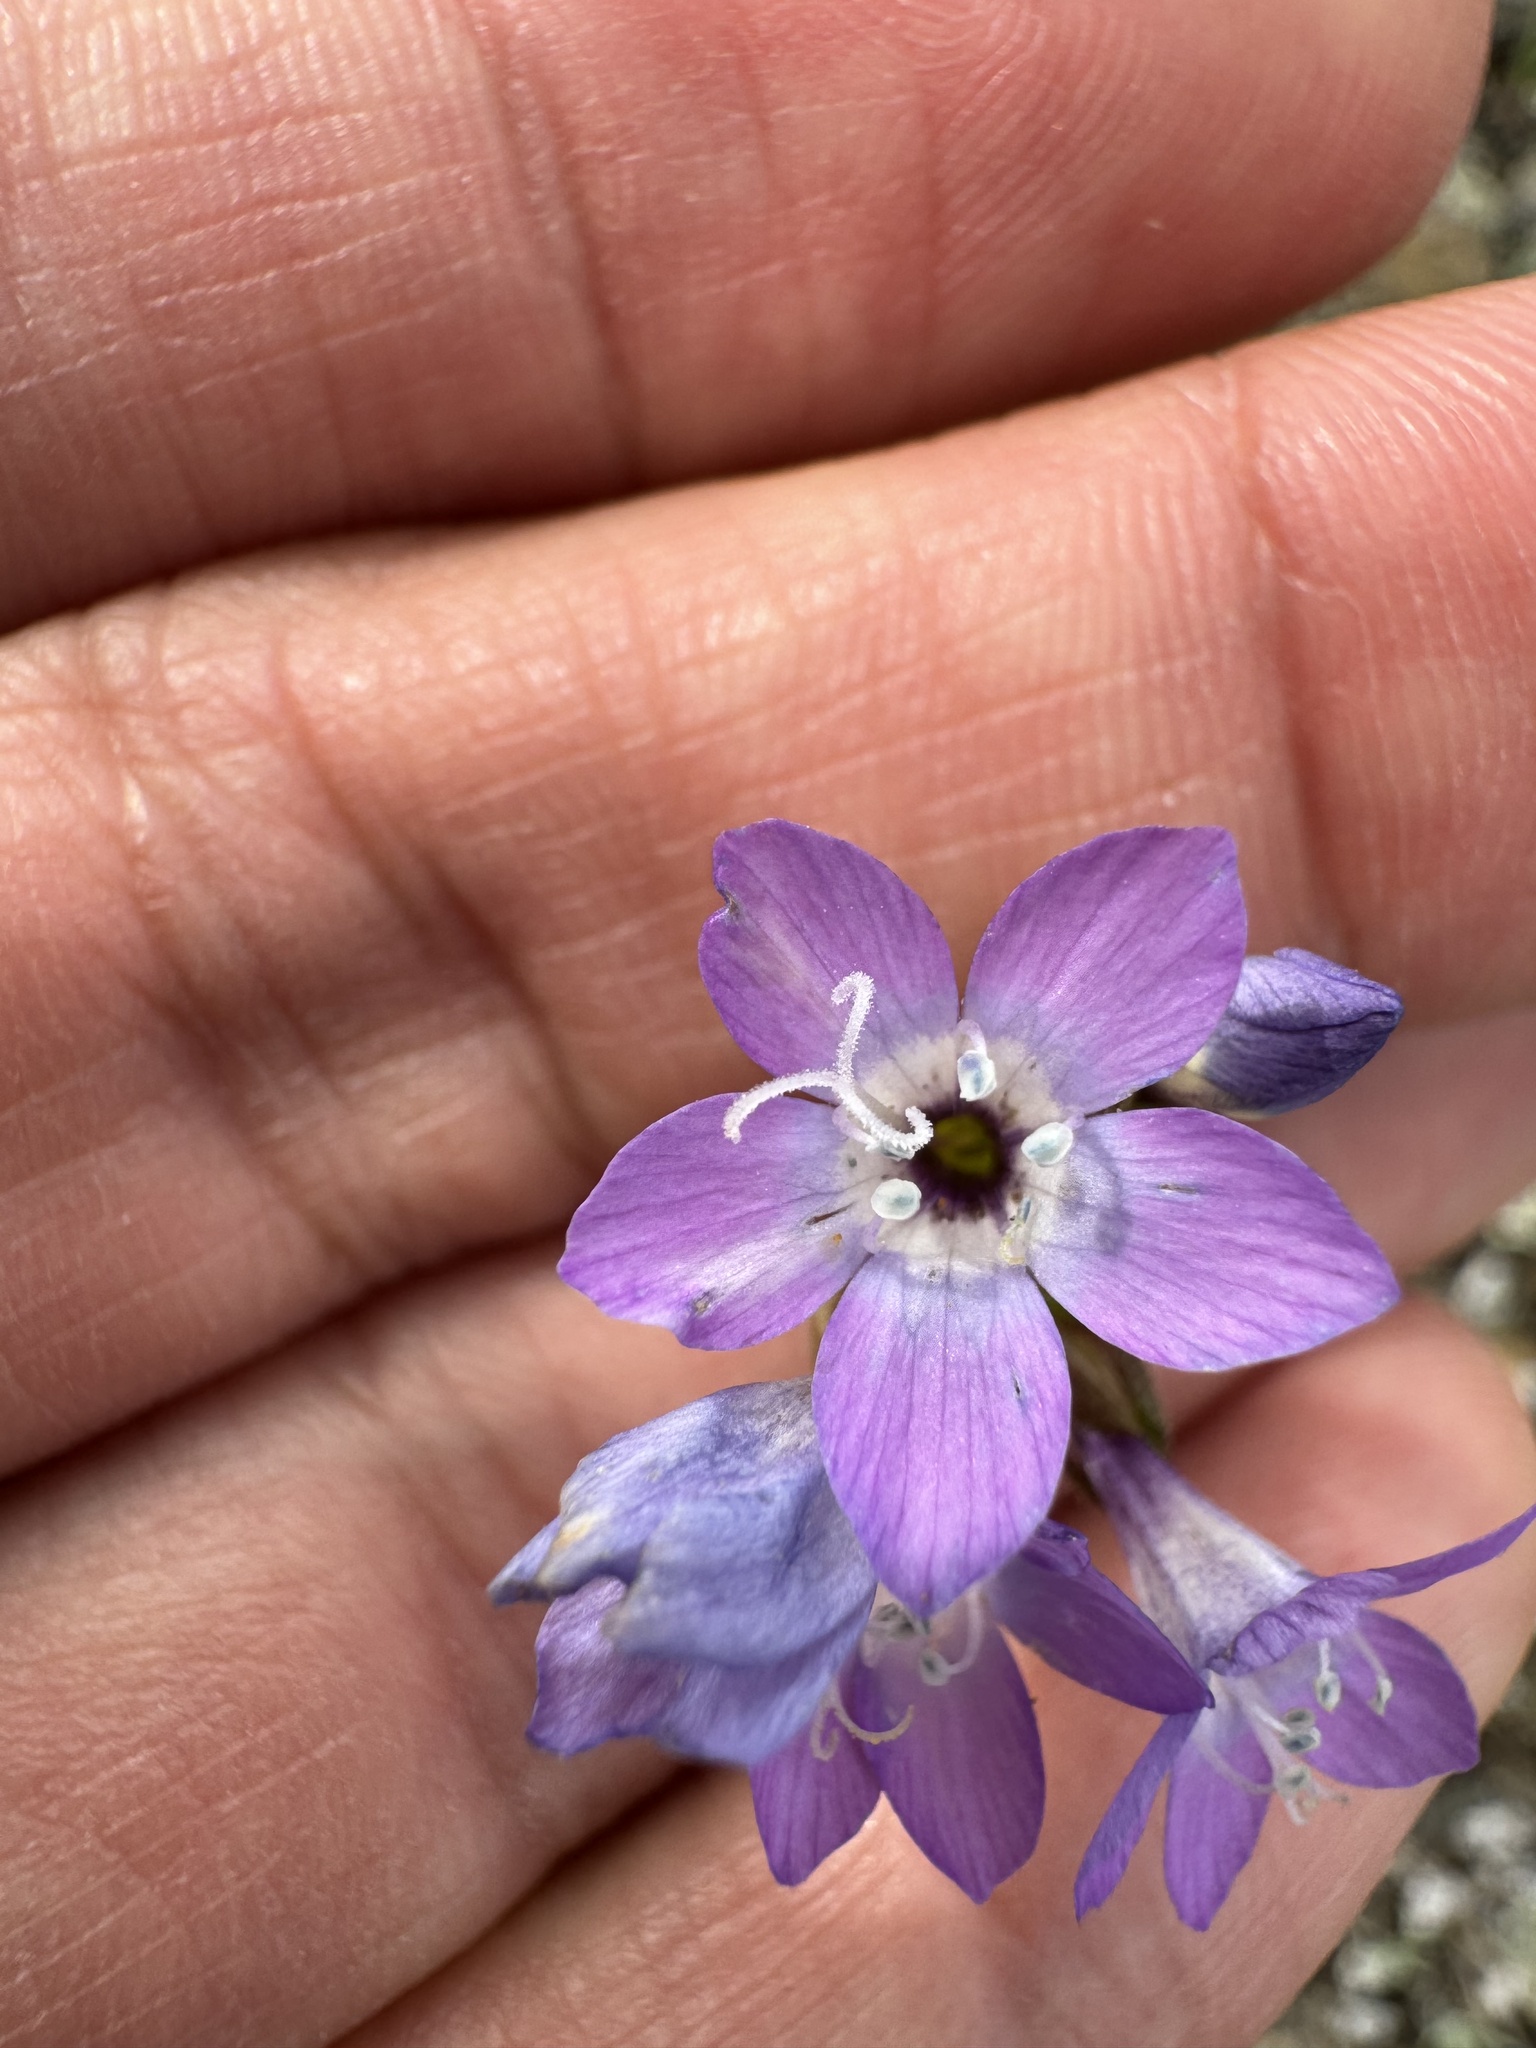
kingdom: Plantae
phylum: Tracheophyta
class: Magnoliopsida
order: Ericales
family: Polemoniaceae
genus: Gilia
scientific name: Gilia nevinii
